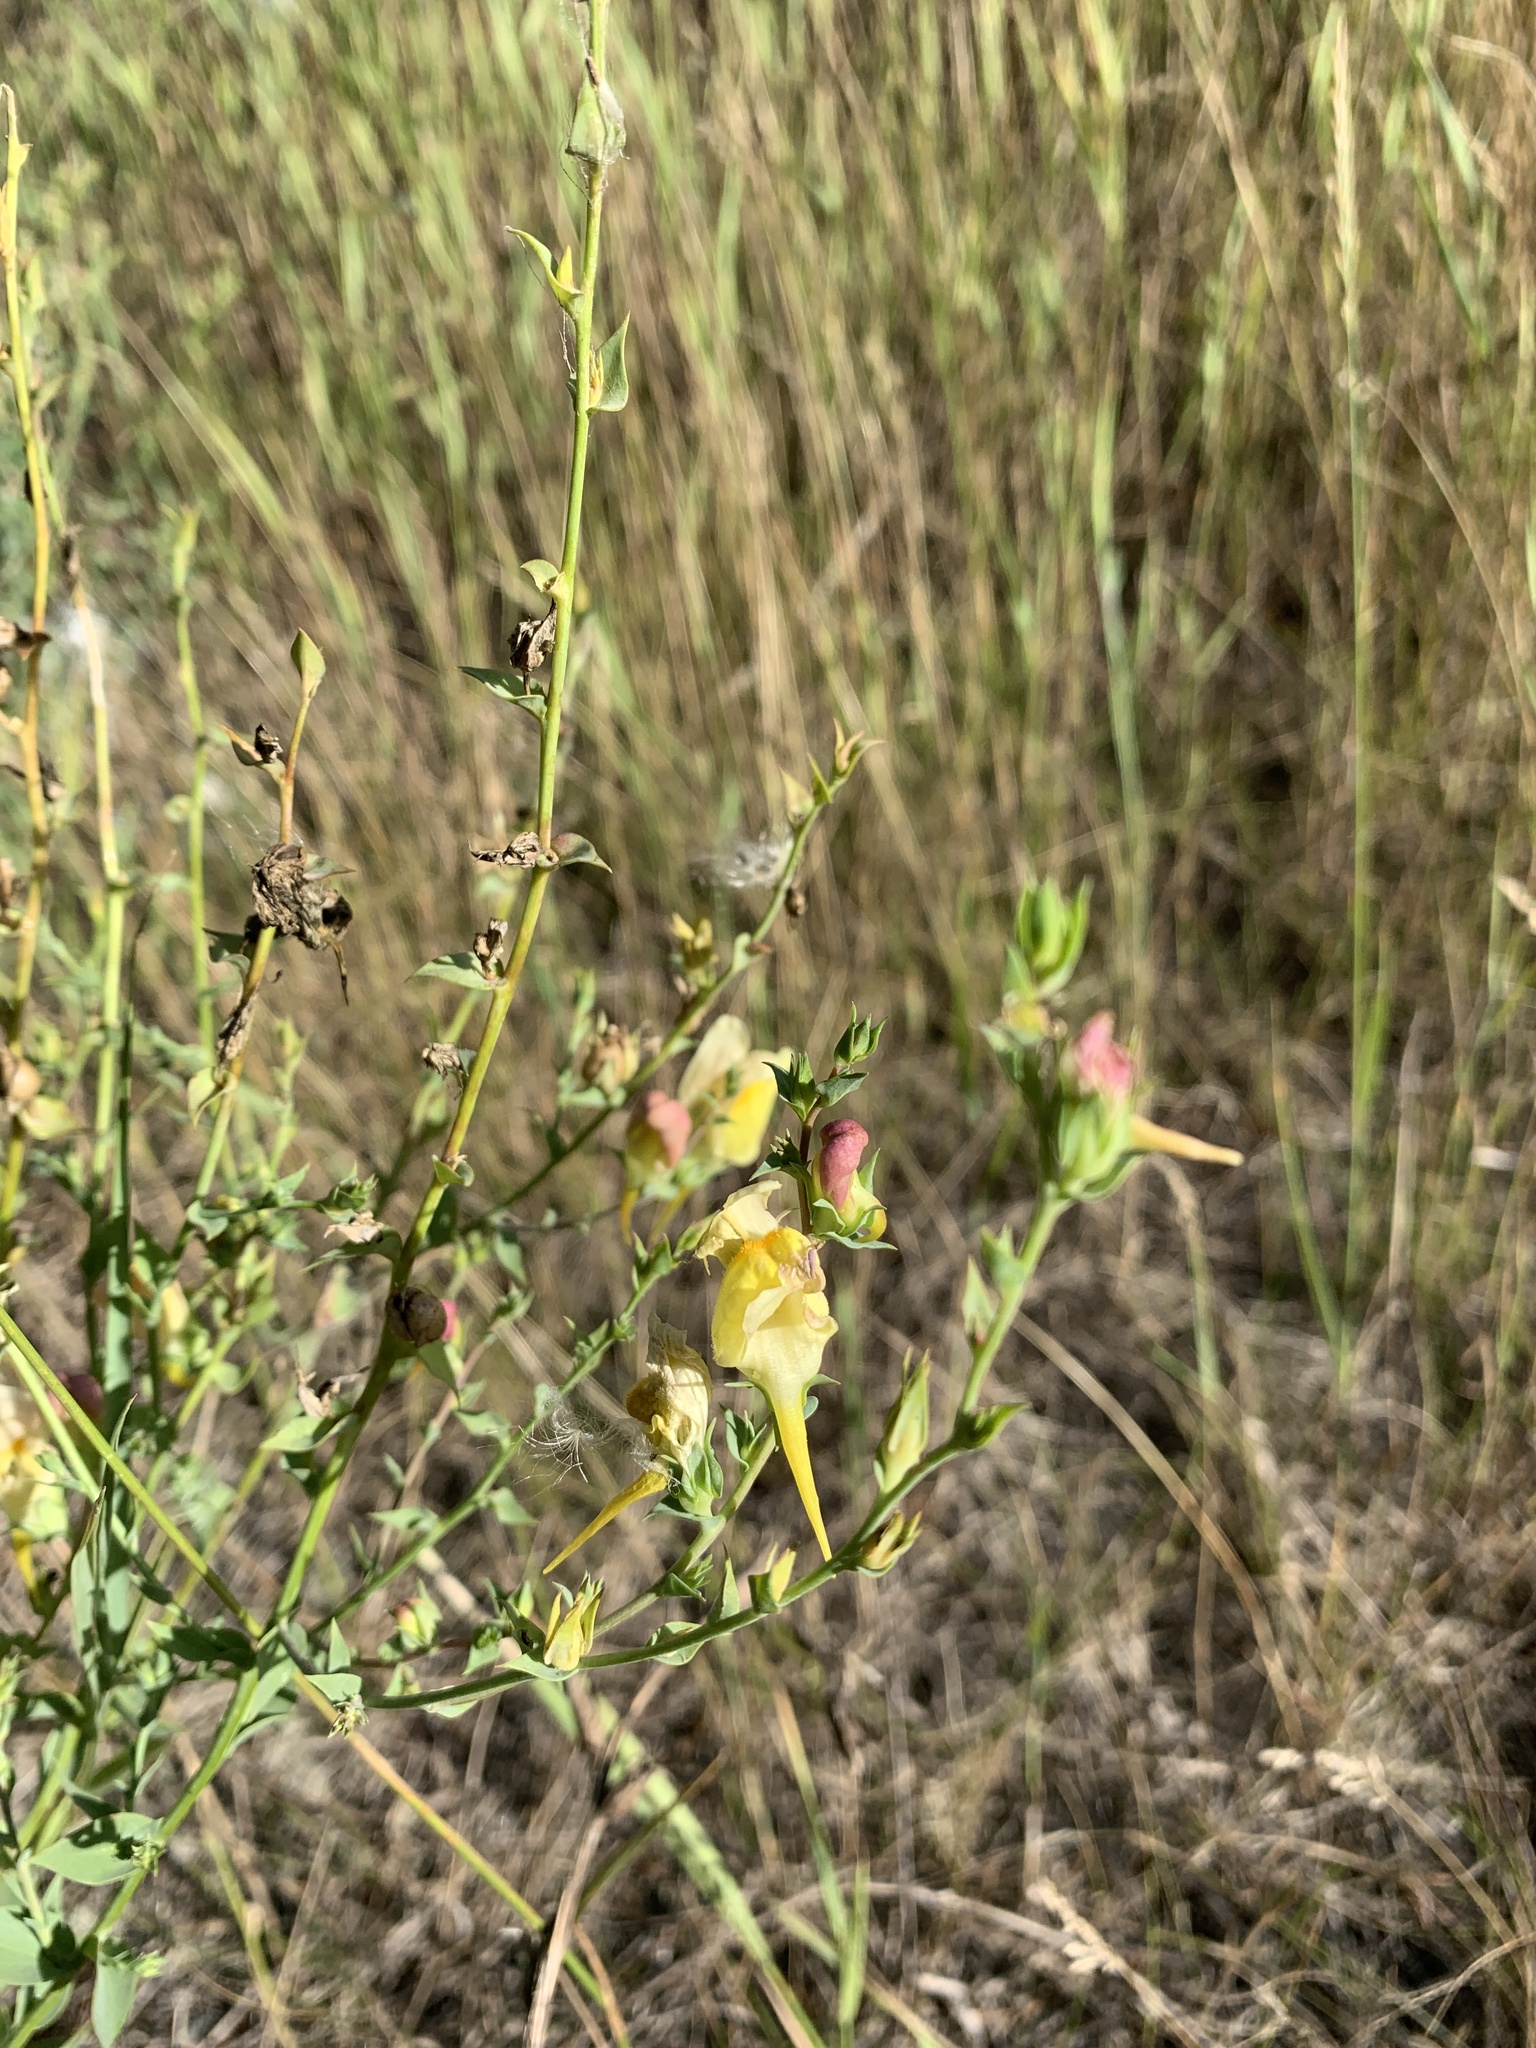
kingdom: Plantae
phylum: Tracheophyta
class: Magnoliopsida
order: Lamiales
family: Plantaginaceae
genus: Linaria
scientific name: Linaria dalmatica
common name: Dalmatian toadflax
